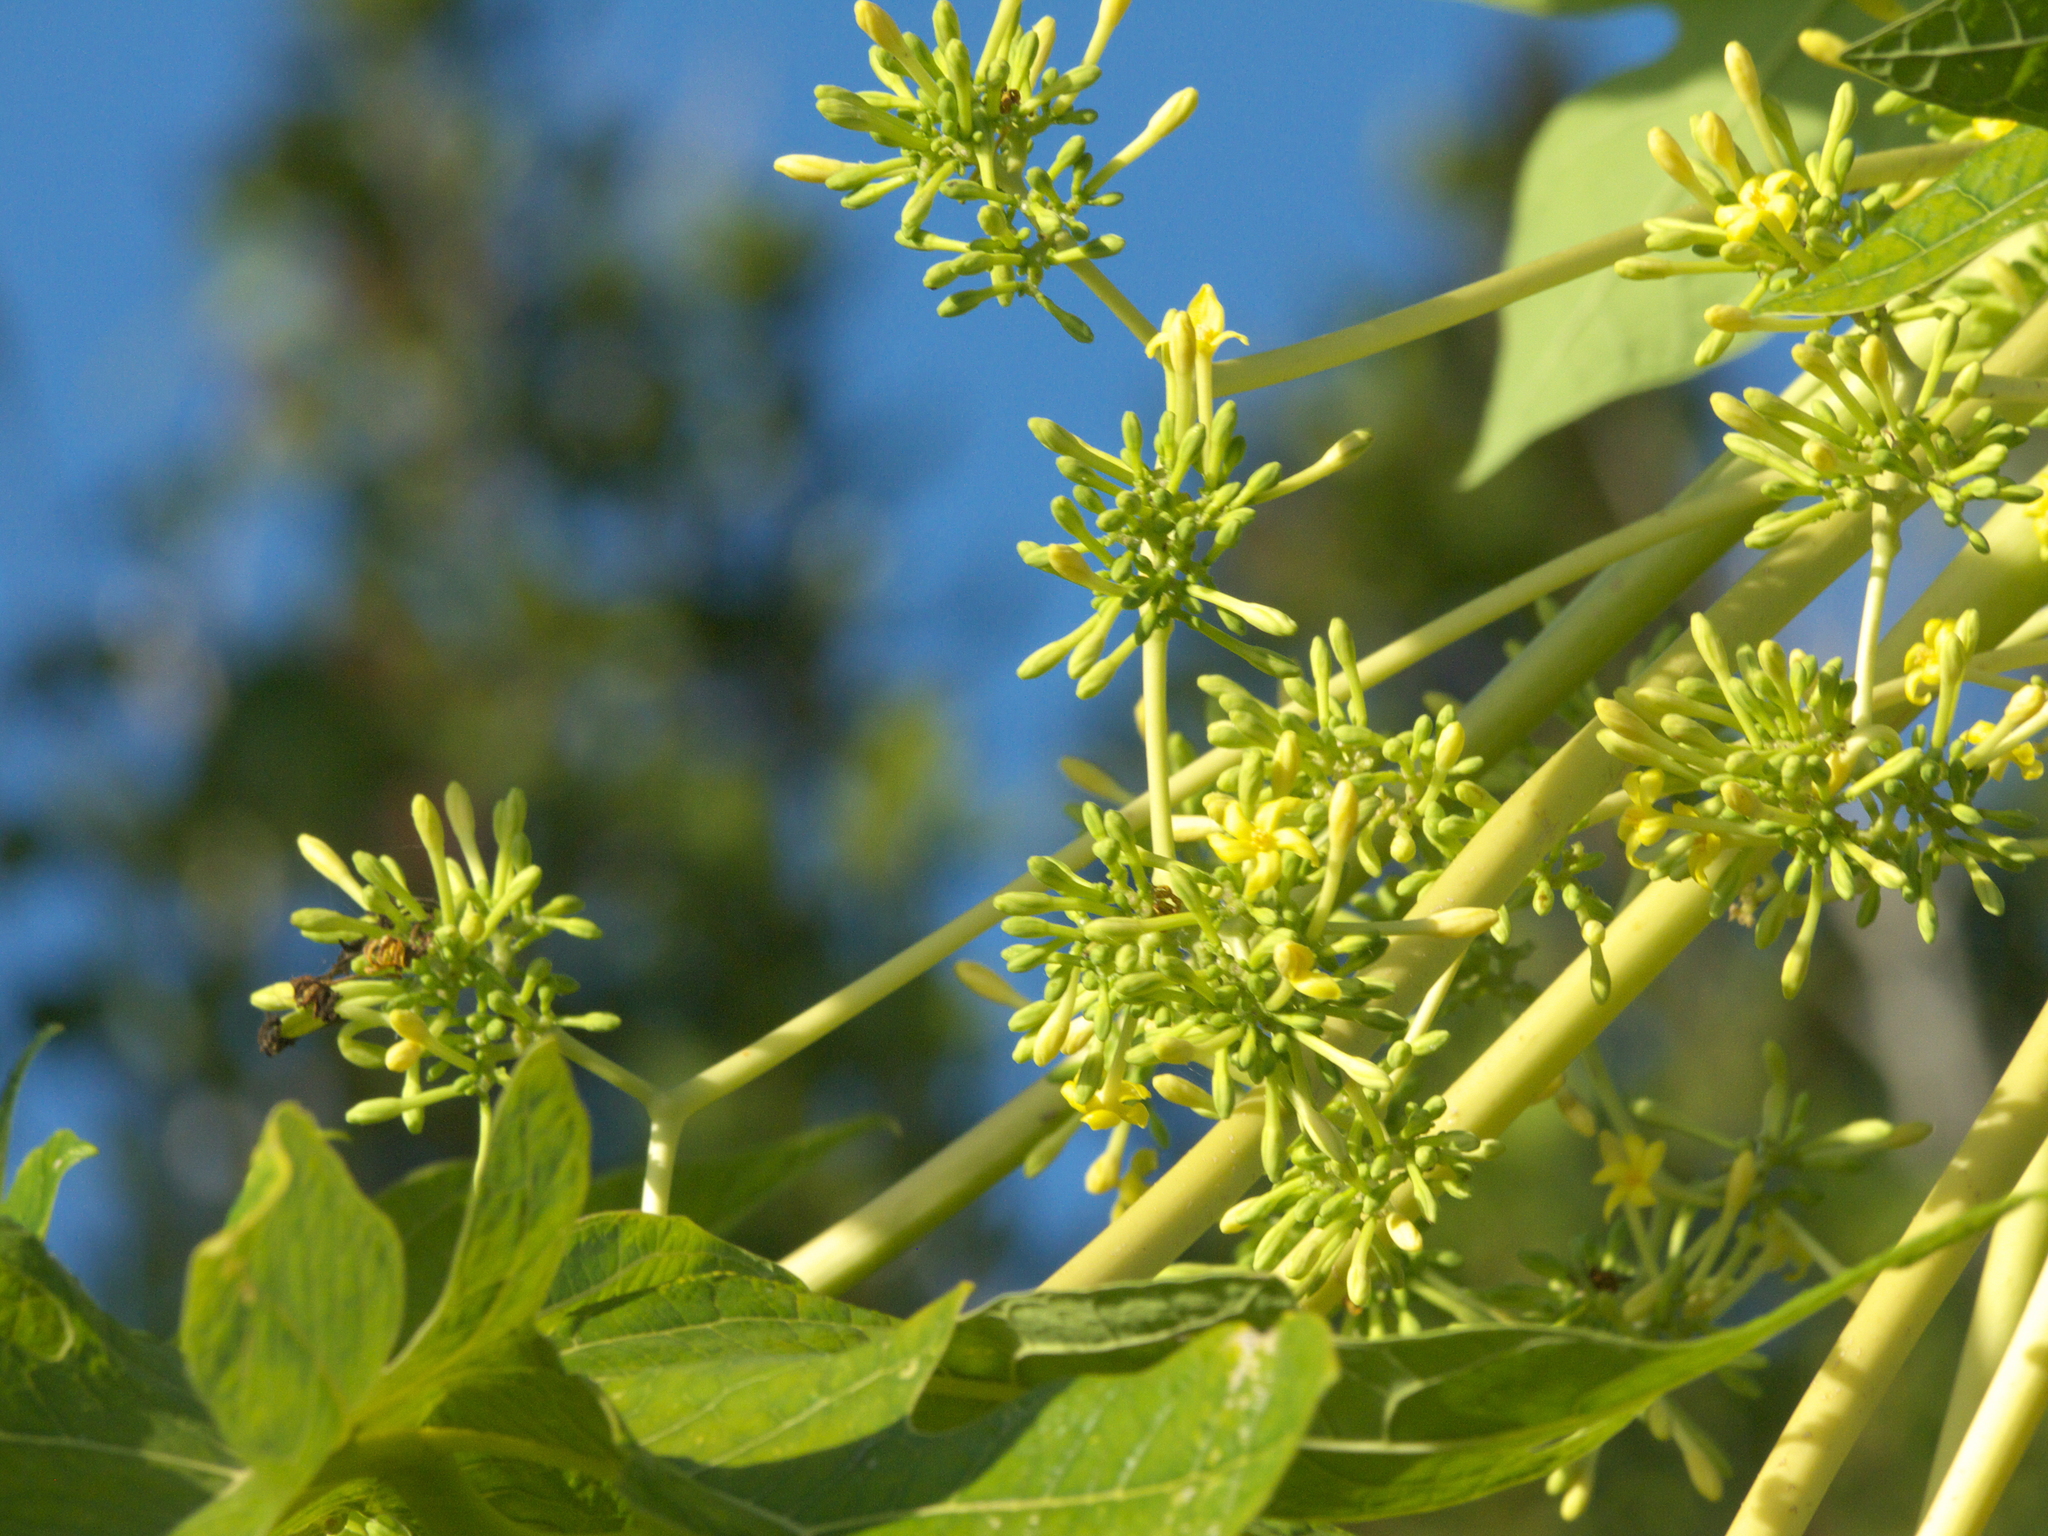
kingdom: Plantae
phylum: Tracheophyta
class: Magnoliopsida
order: Brassicales
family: Caricaceae
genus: Carica
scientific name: Carica papaya
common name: Papaya
